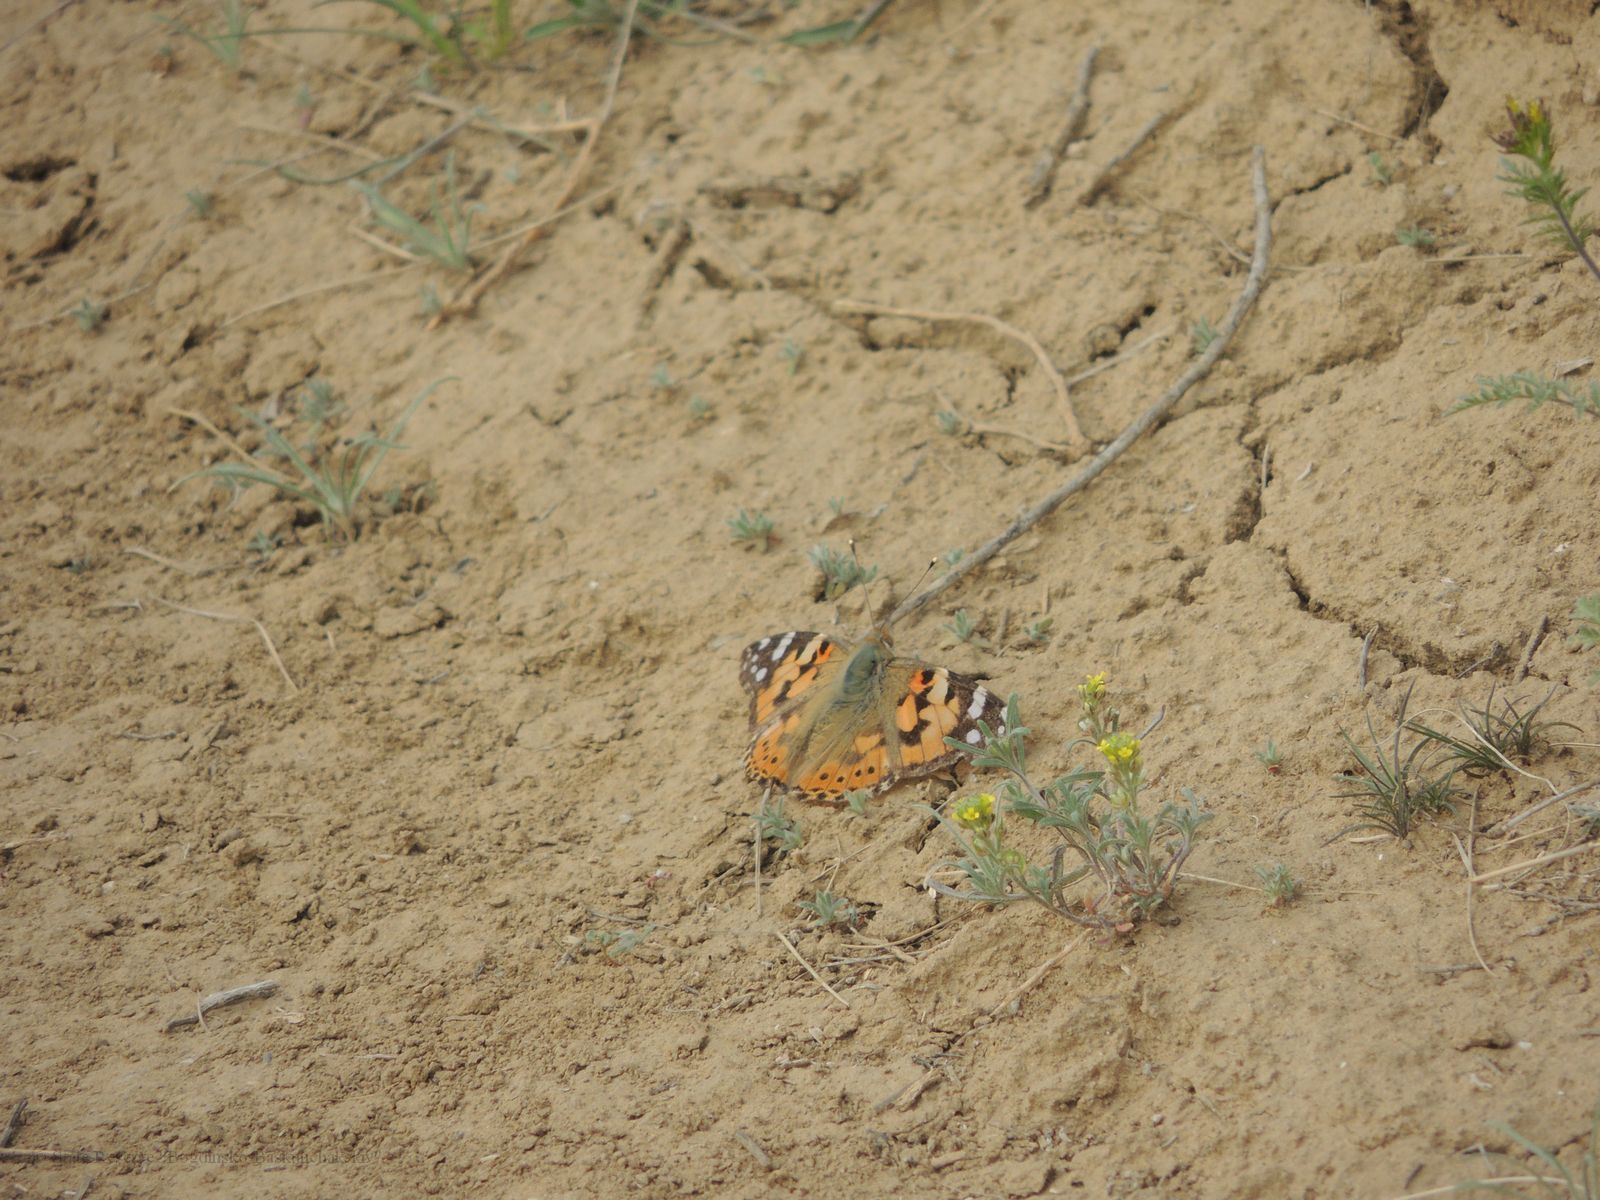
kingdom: Animalia
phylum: Arthropoda
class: Insecta
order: Lepidoptera
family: Nymphalidae
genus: Vanessa
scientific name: Vanessa cardui
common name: Painted lady
